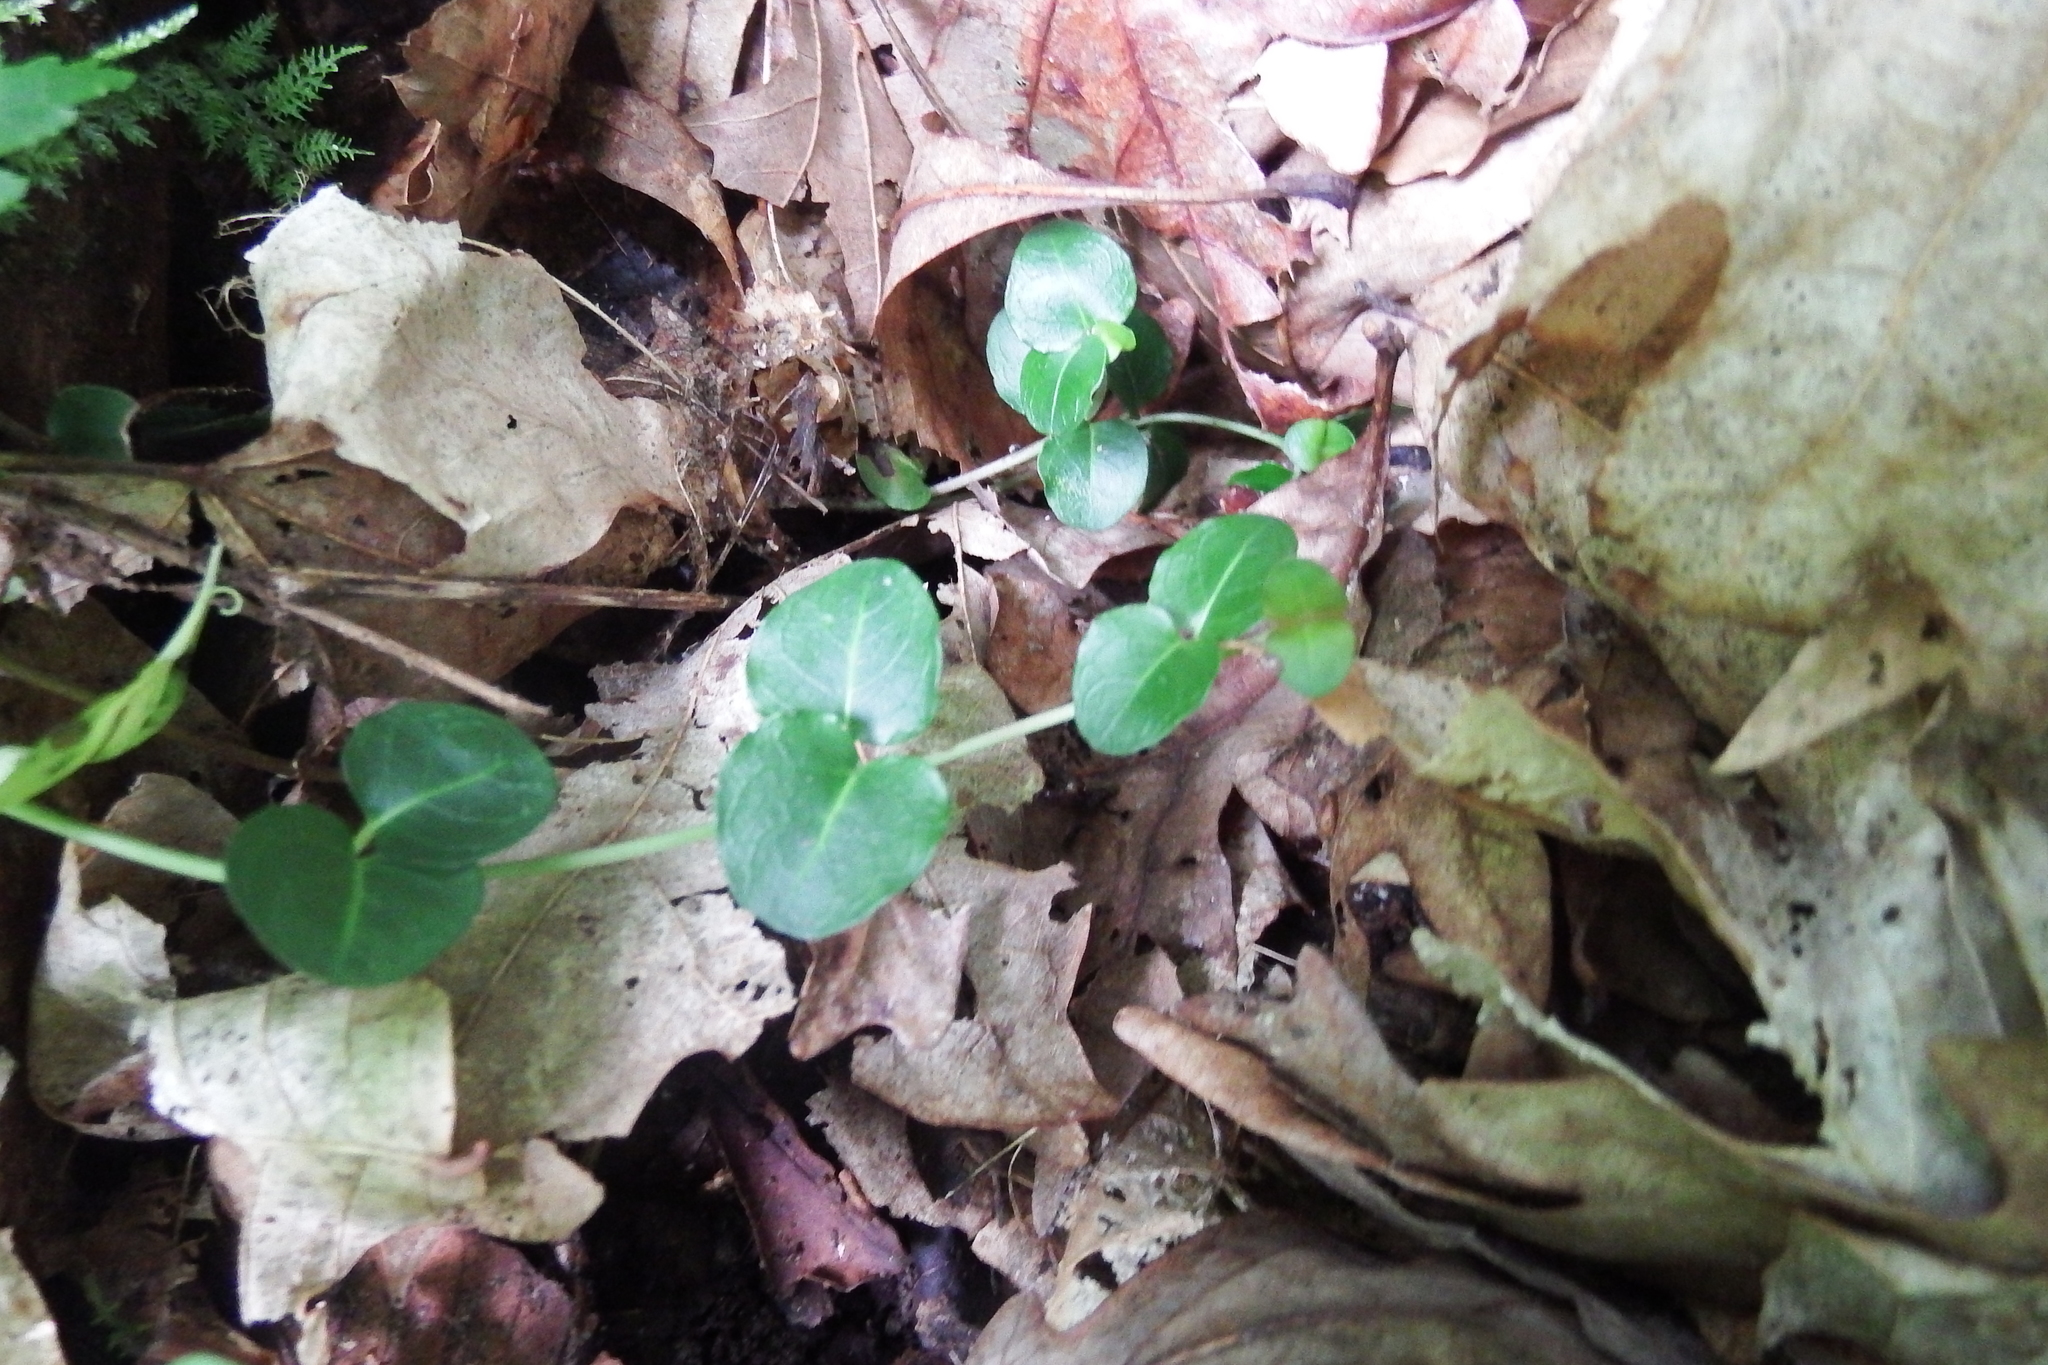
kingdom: Plantae
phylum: Tracheophyta
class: Magnoliopsida
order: Gentianales
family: Rubiaceae
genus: Mitchella
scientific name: Mitchella repens
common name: Partridge-berry
